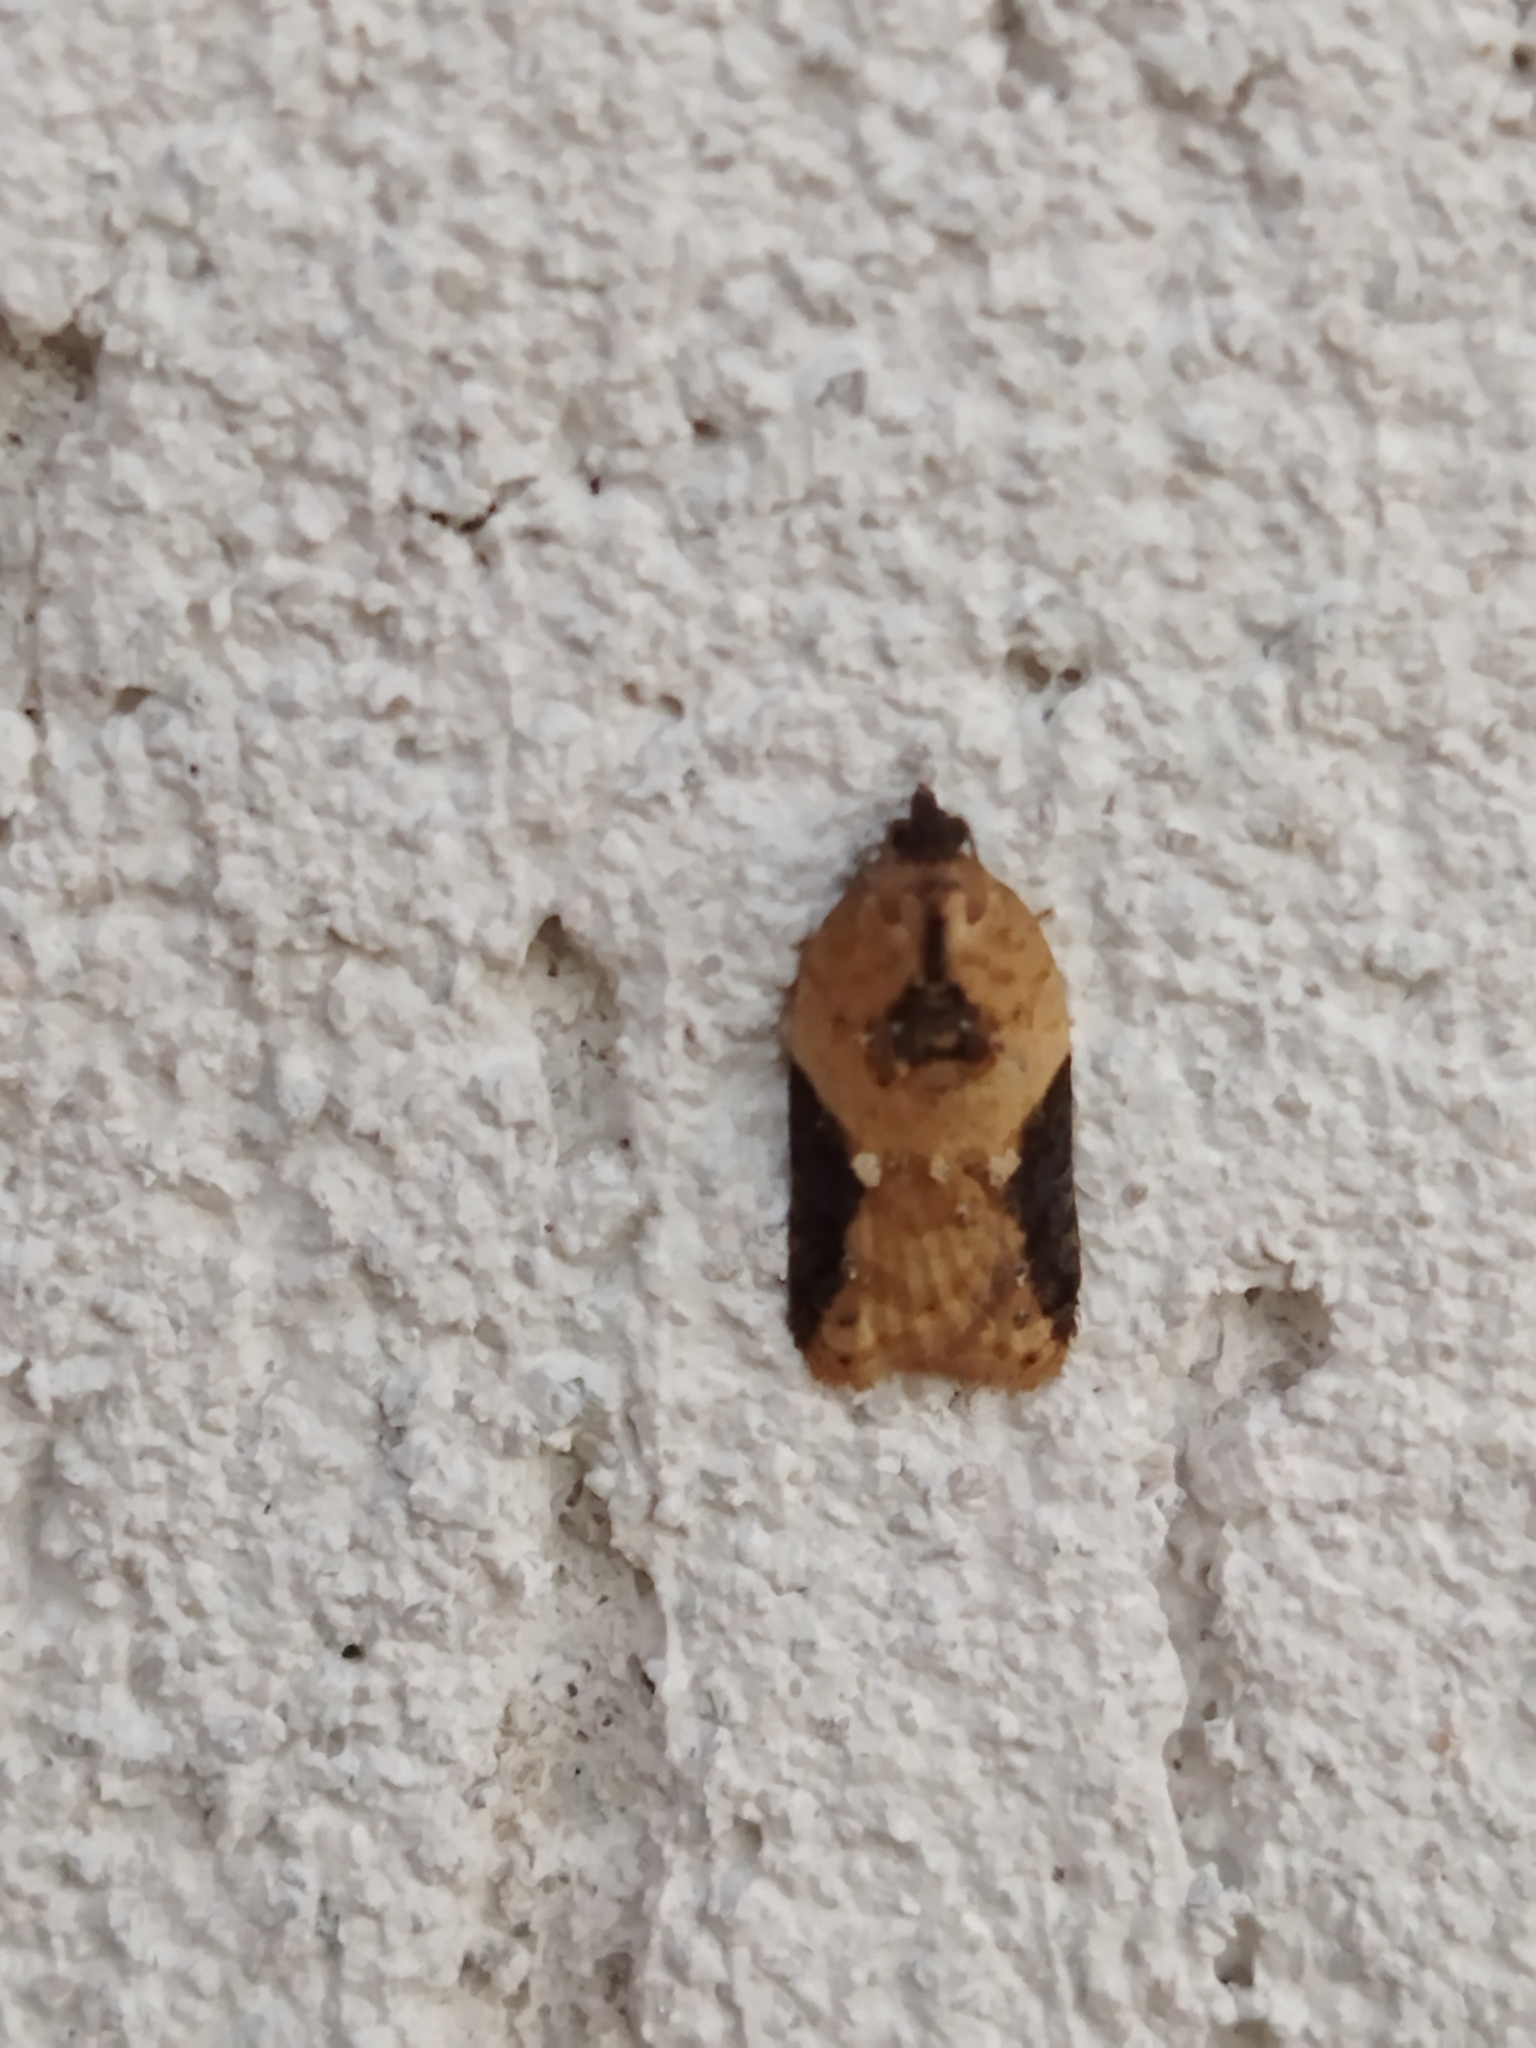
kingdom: Animalia
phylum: Arthropoda
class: Insecta
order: Lepidoptera
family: Tortricidae
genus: Acleris
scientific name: Acleris laterana
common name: Dark-triangle button
